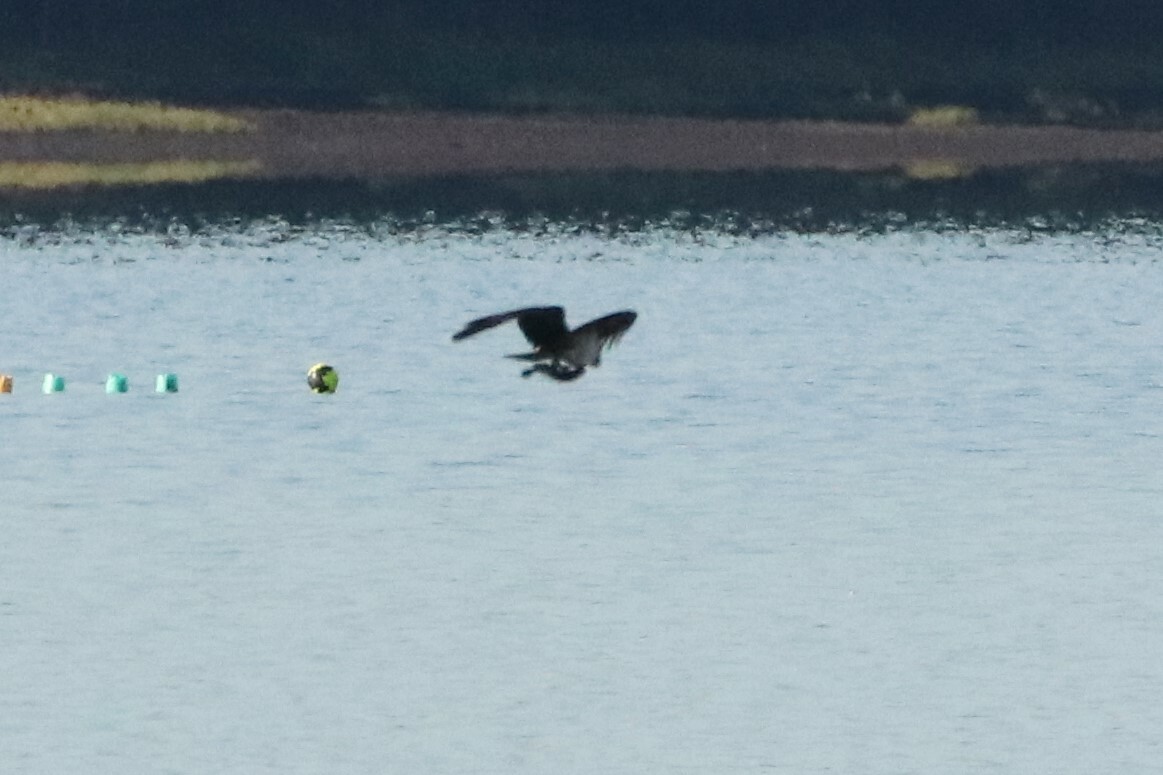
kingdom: Animalia
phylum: Chordata
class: Aves
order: Accipitriformes
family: Pandionidae
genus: Pandion
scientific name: Pandion haliaetus
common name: Osprey
